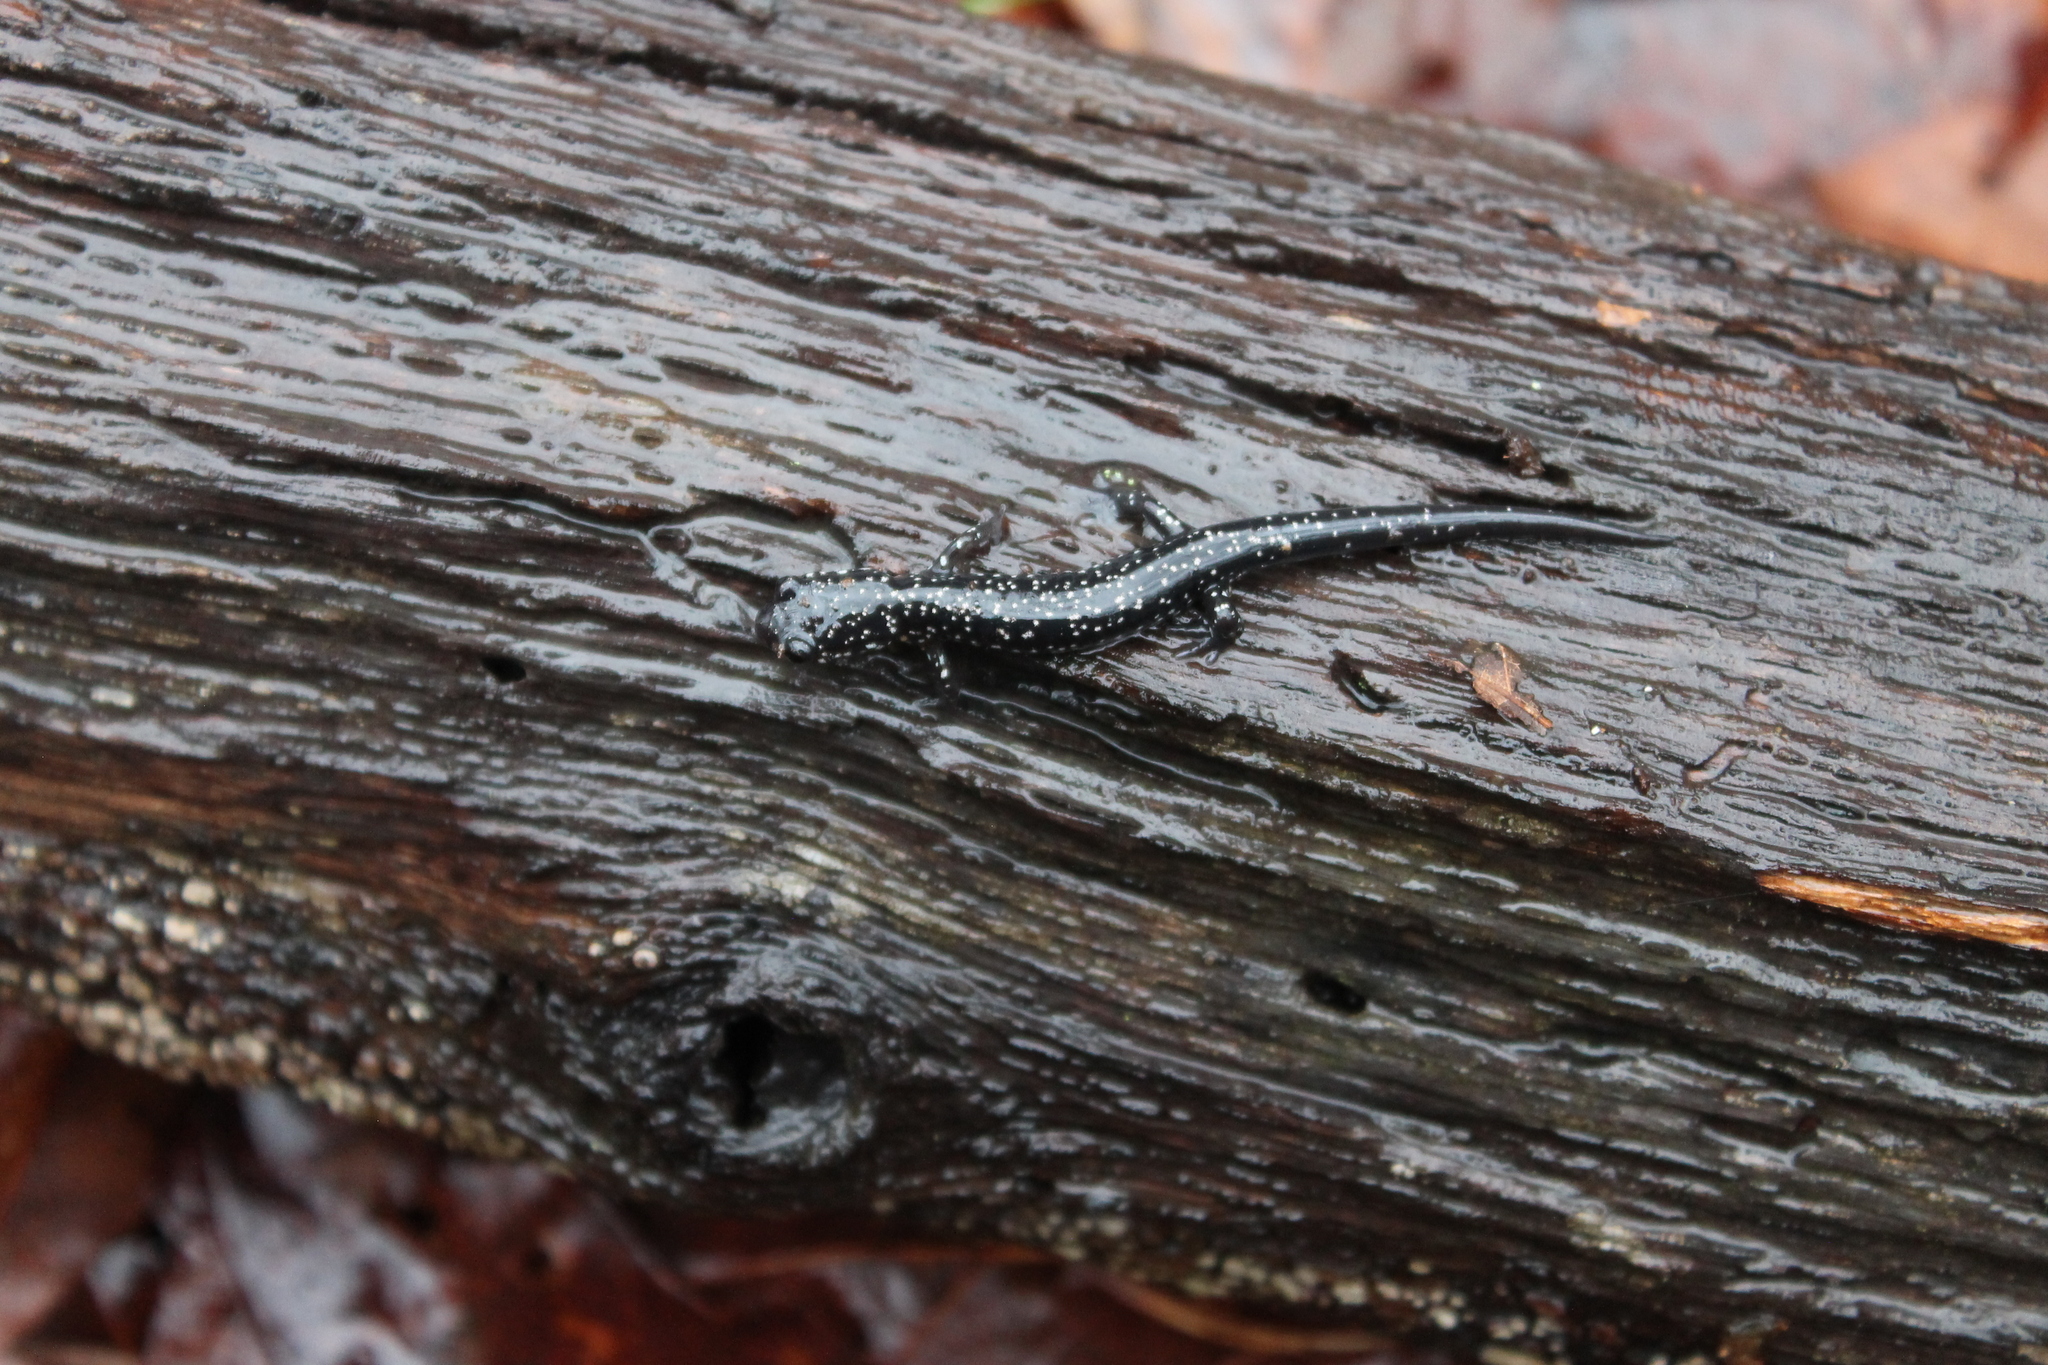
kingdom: Animalia
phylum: Chordata
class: Amphibia
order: Caudata
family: Plethodontidae
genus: Plethodon
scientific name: Plethodon glutinosus
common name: Northern slimy salamander
